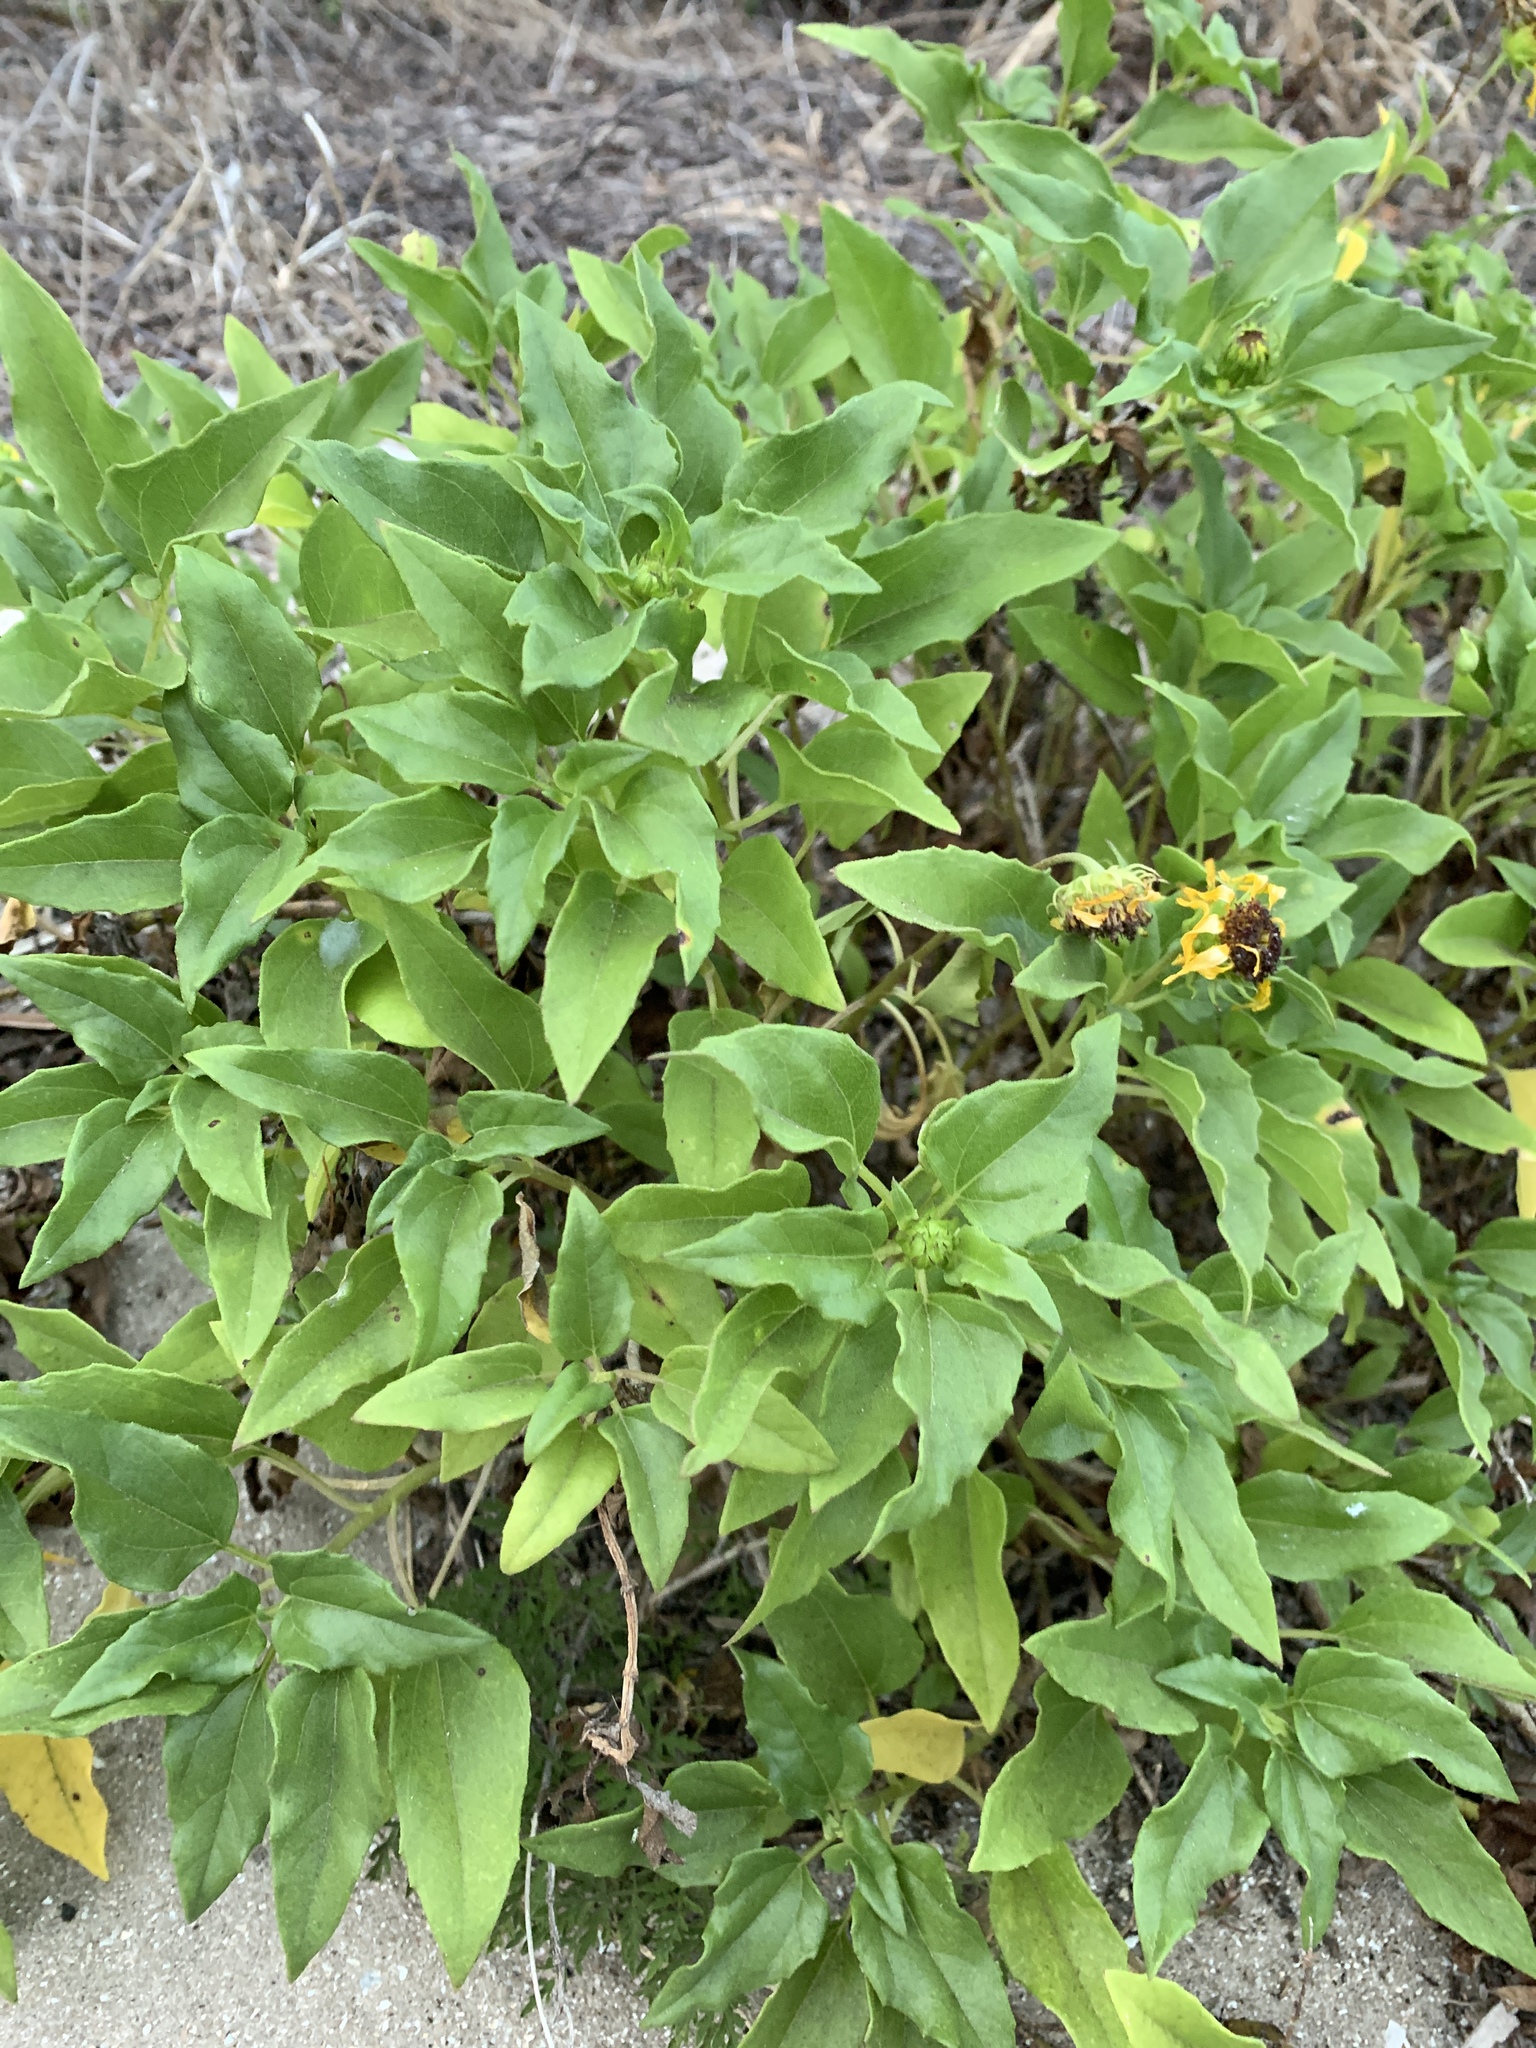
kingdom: Plantae
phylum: Tracheophyta
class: Magnoliopsida
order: Asterales
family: Asteraceae
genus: Helianthus
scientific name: Helianthus debilis
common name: Weak sunflower
